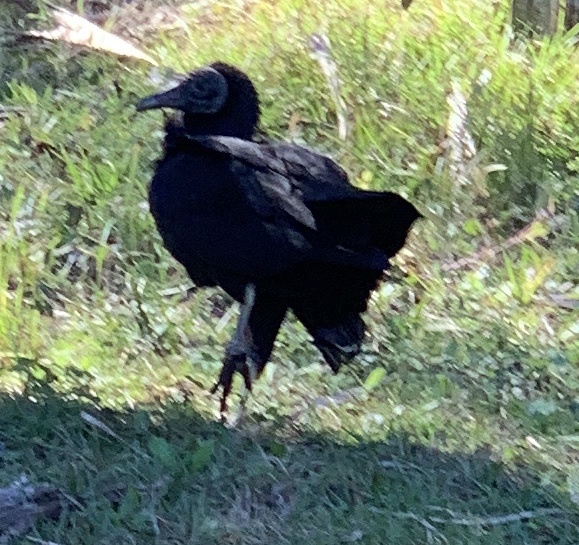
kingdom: Animalia
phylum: Chordata
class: Aves
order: Accipitriformes
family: Cathartidae
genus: Coragyps
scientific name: Coragyps atratus
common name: Black vulture
